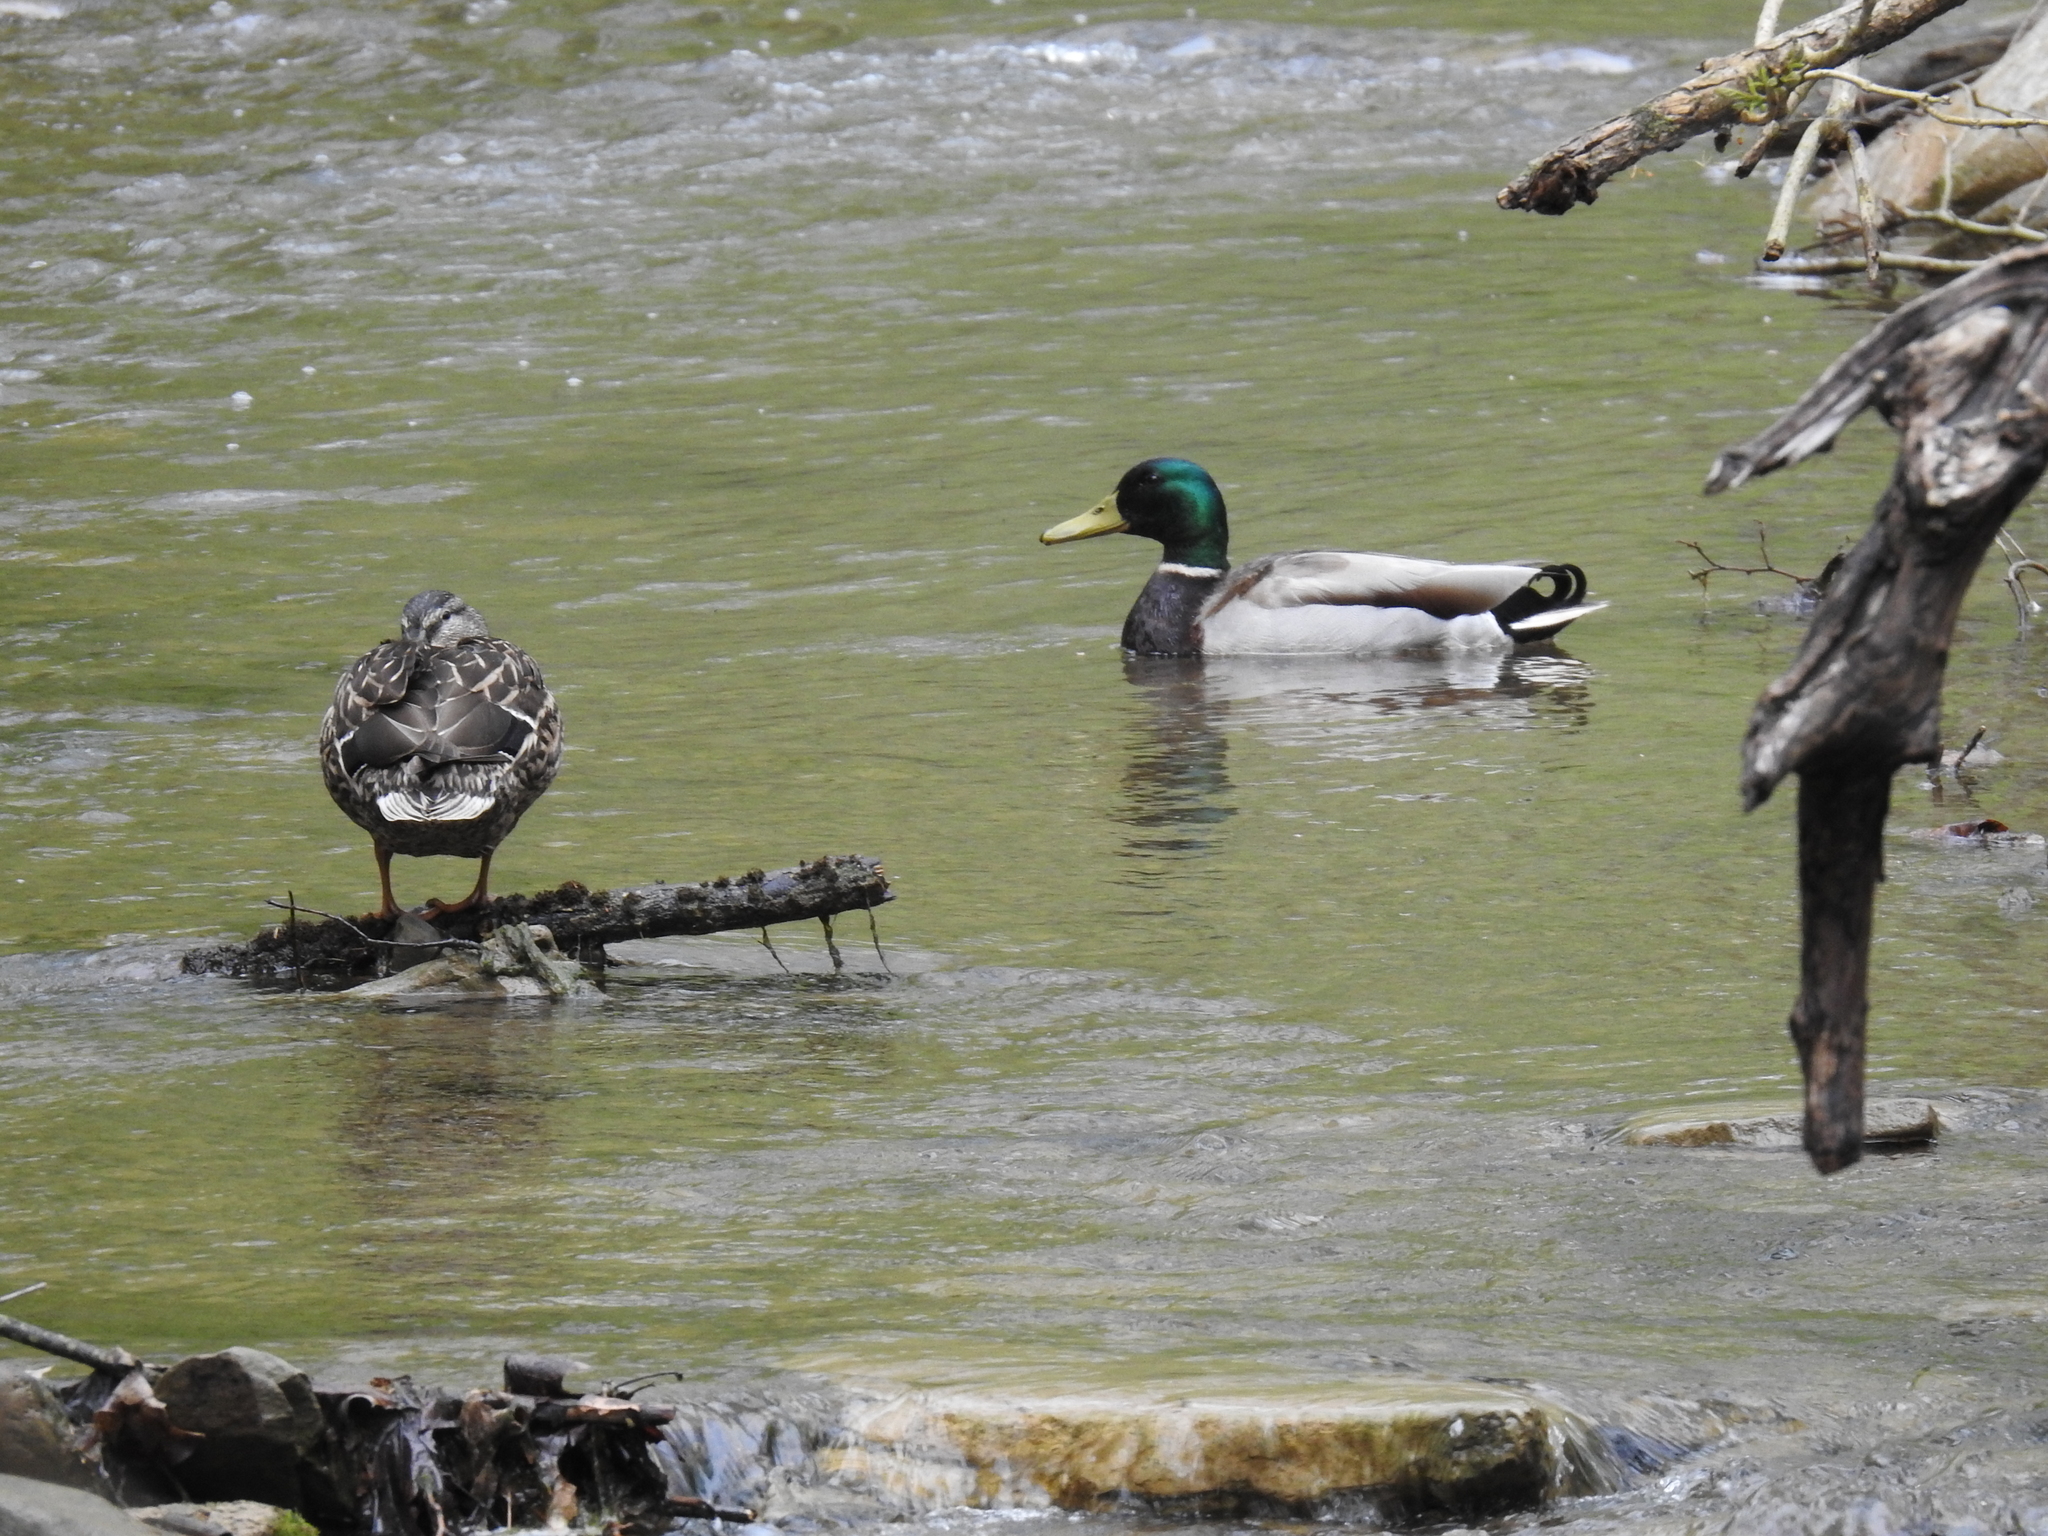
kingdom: Animalia
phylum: Chordata
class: Aves
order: Anseriformes
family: Anatidae
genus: Anas
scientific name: Anas platyrhynchos
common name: Mallard
